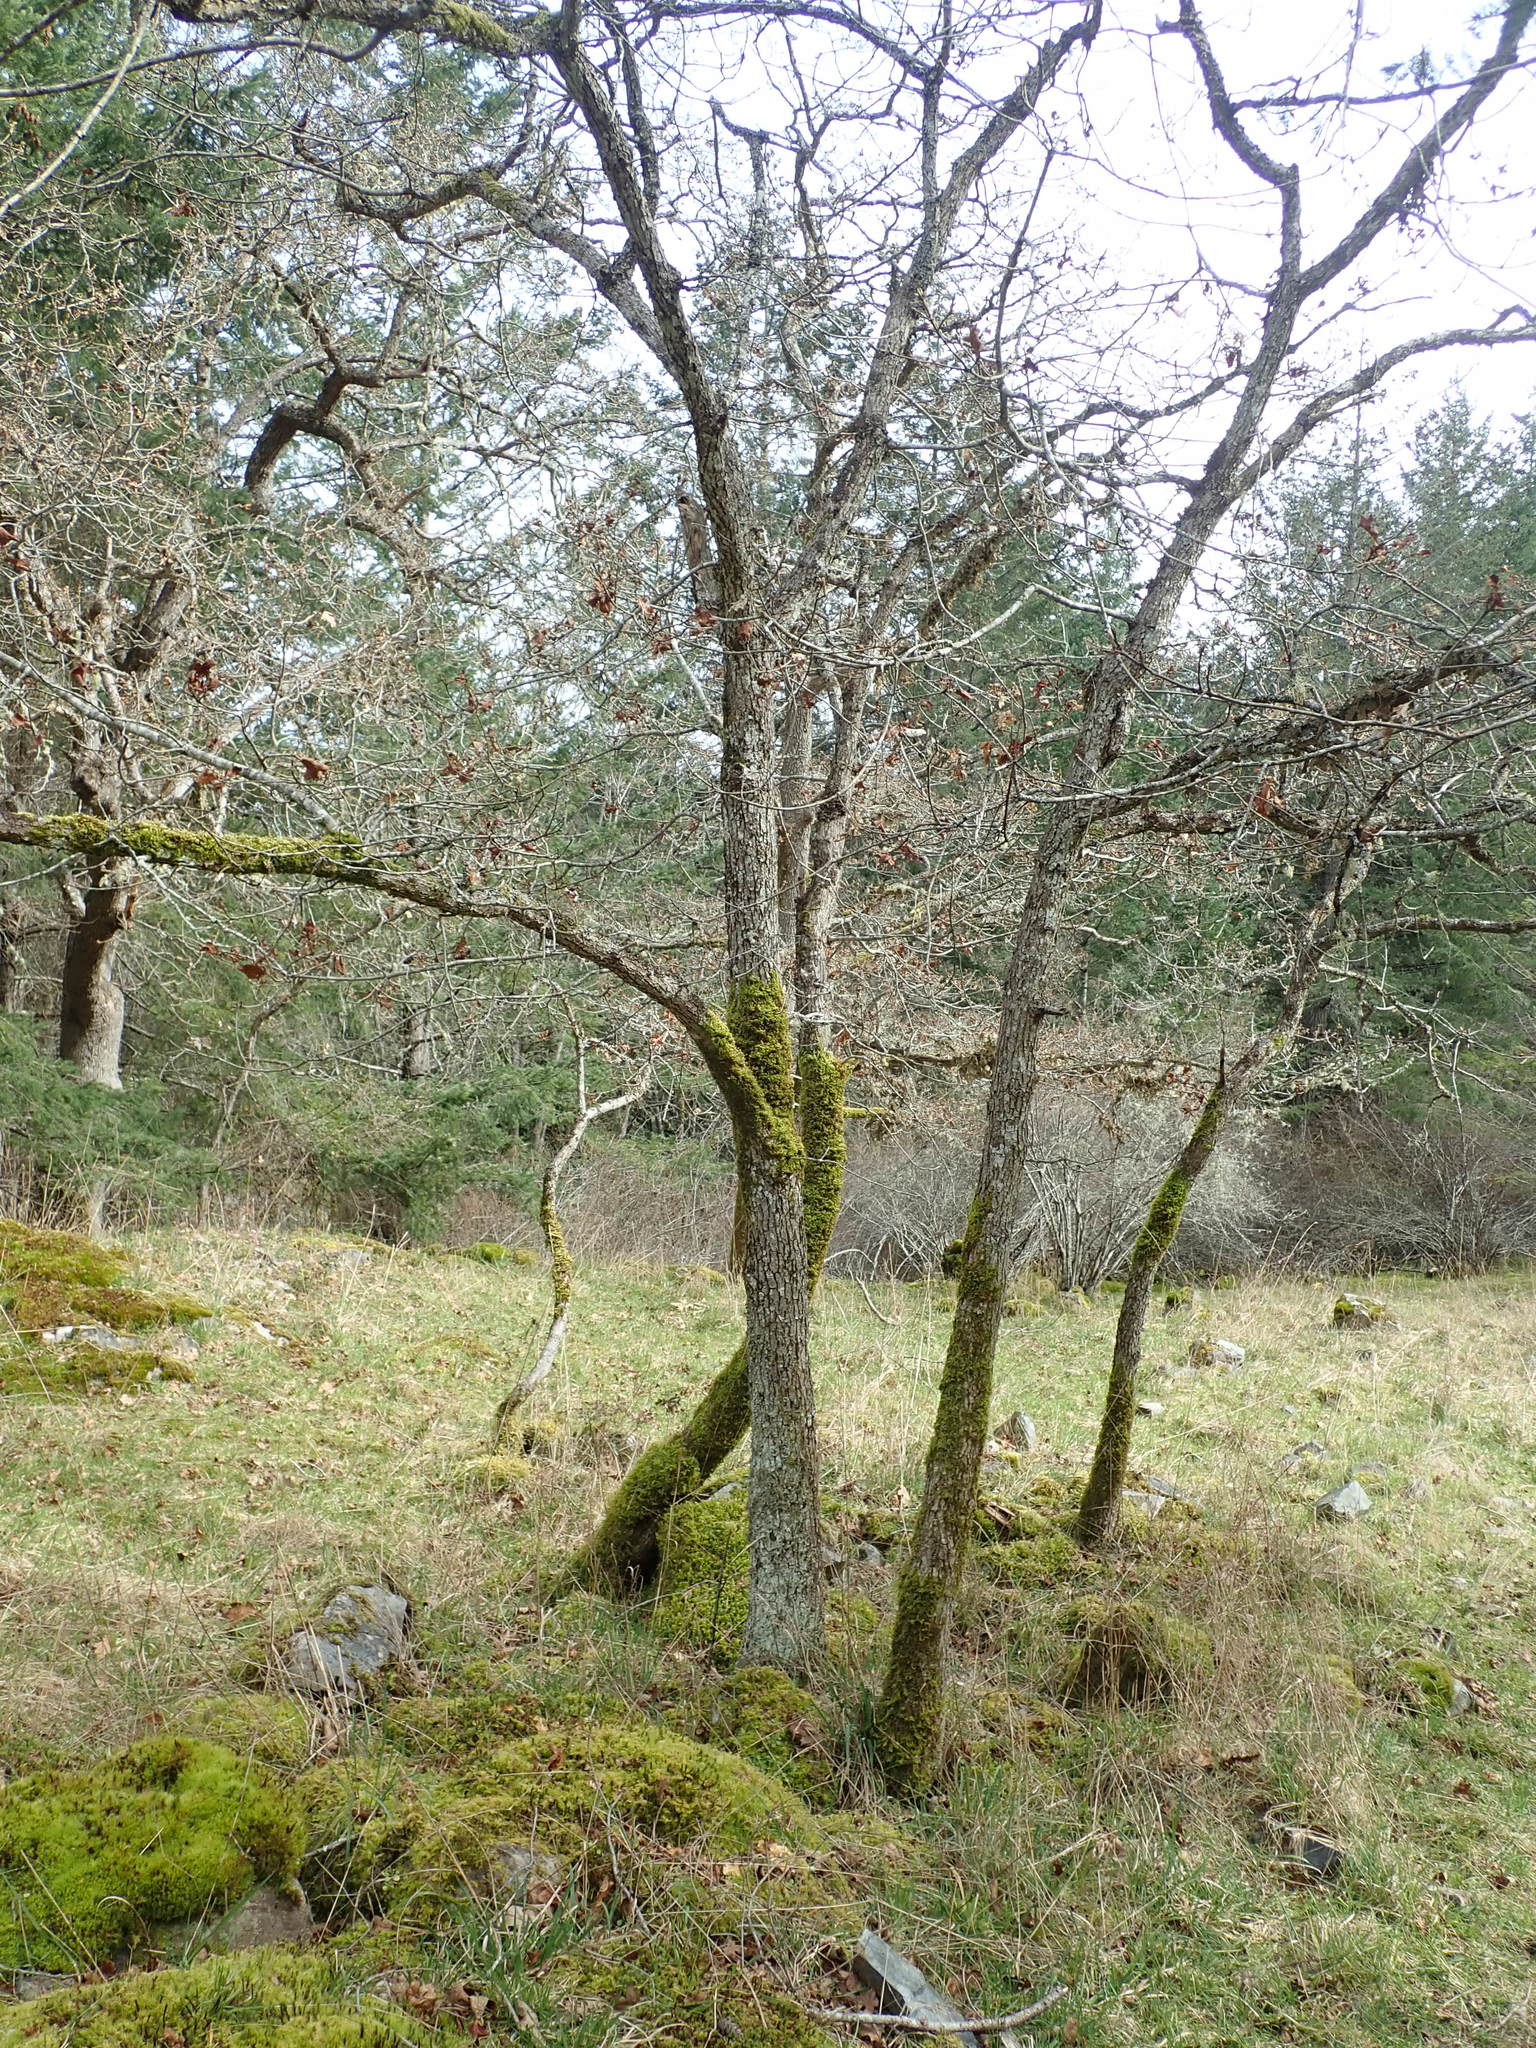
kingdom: Plantae
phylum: Tracheophyta
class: Magnoliopsida
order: Fagales
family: Fagaceae
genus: Quercus
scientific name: Quercus garryana
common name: Garry oak
